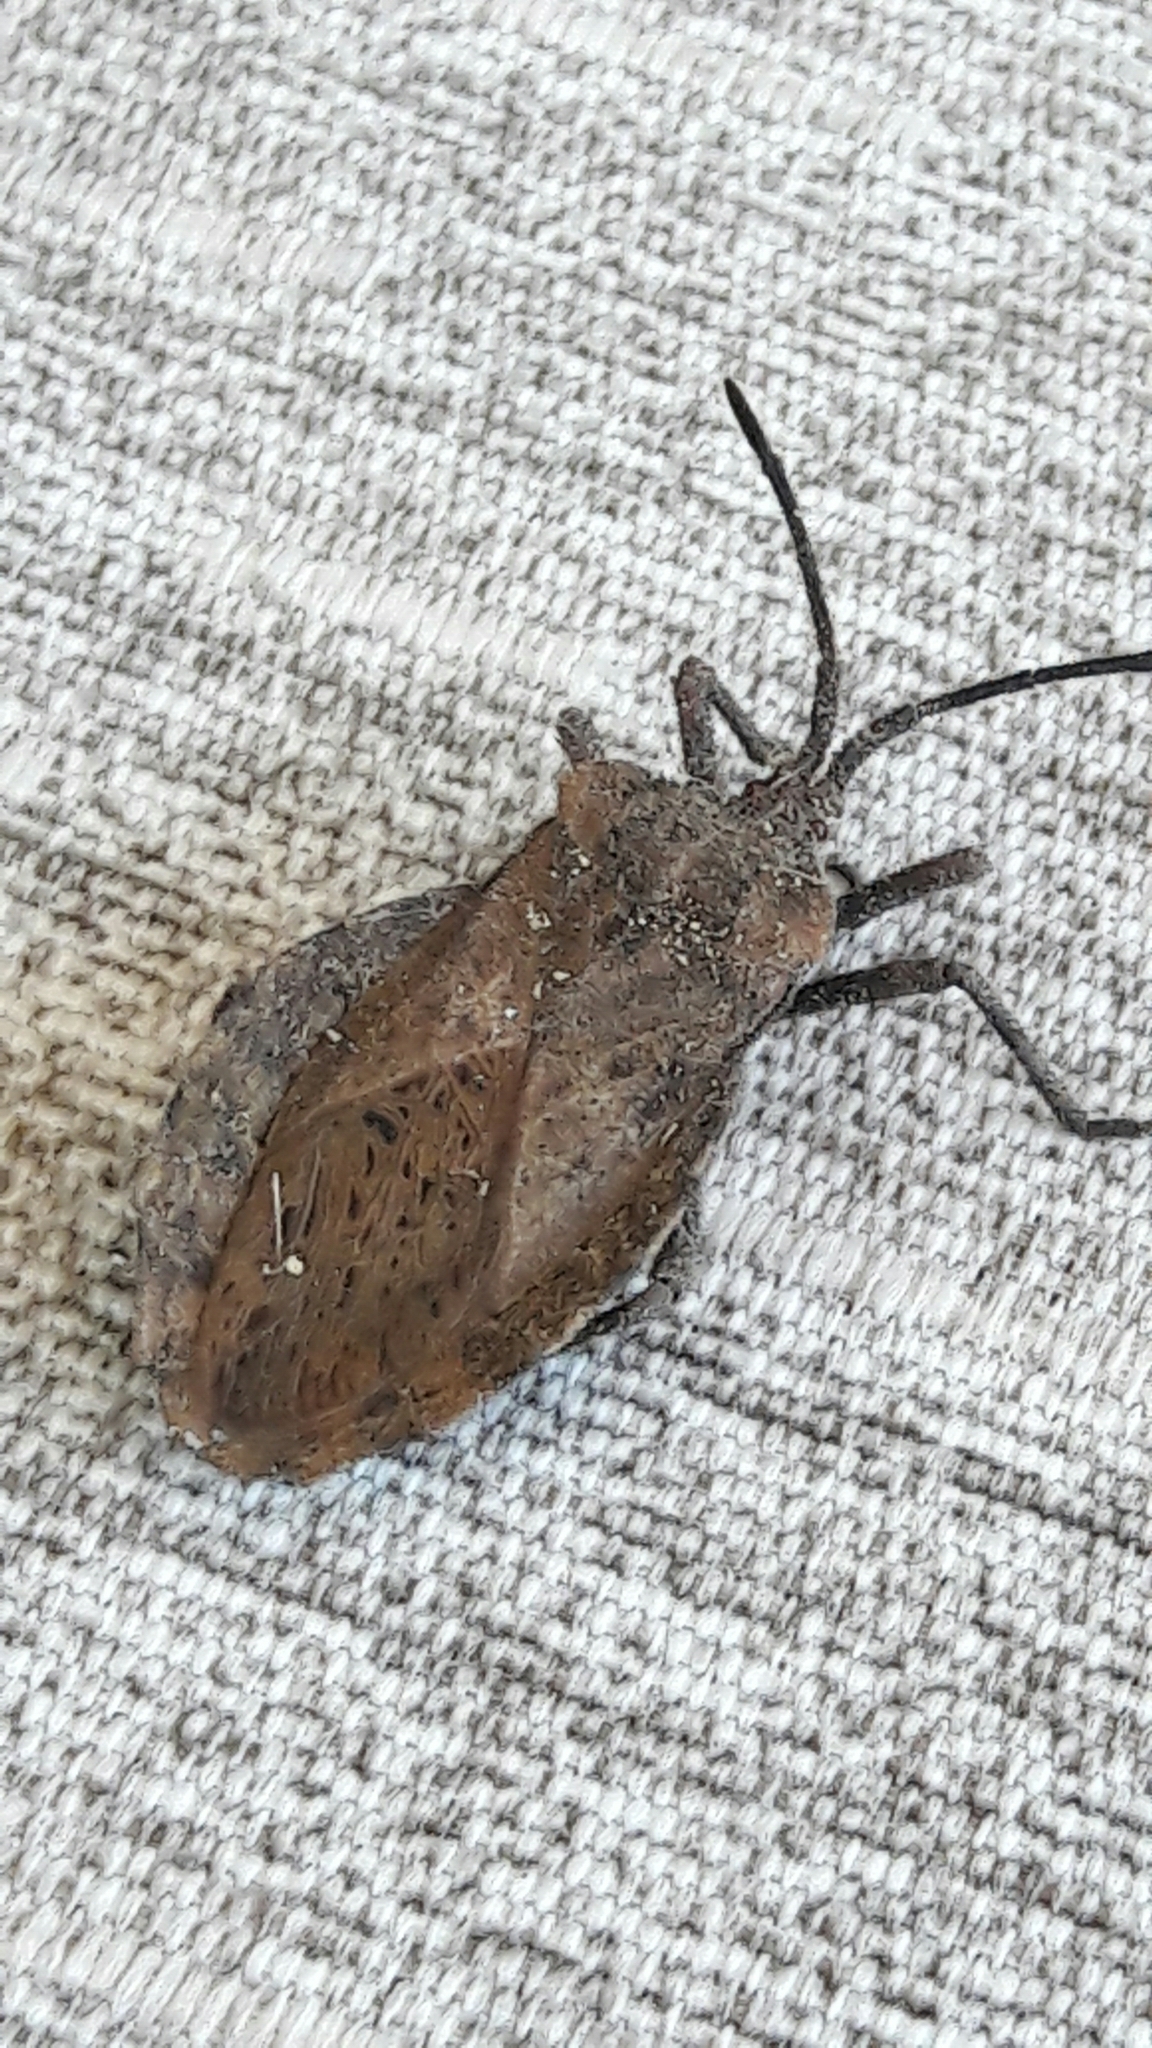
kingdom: Animalia
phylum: Arthropoda
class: Insecta
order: Hemiptera
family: Coreidae
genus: Spartocera
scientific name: Spartocera batatas
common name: Giant sweetpotato bug
